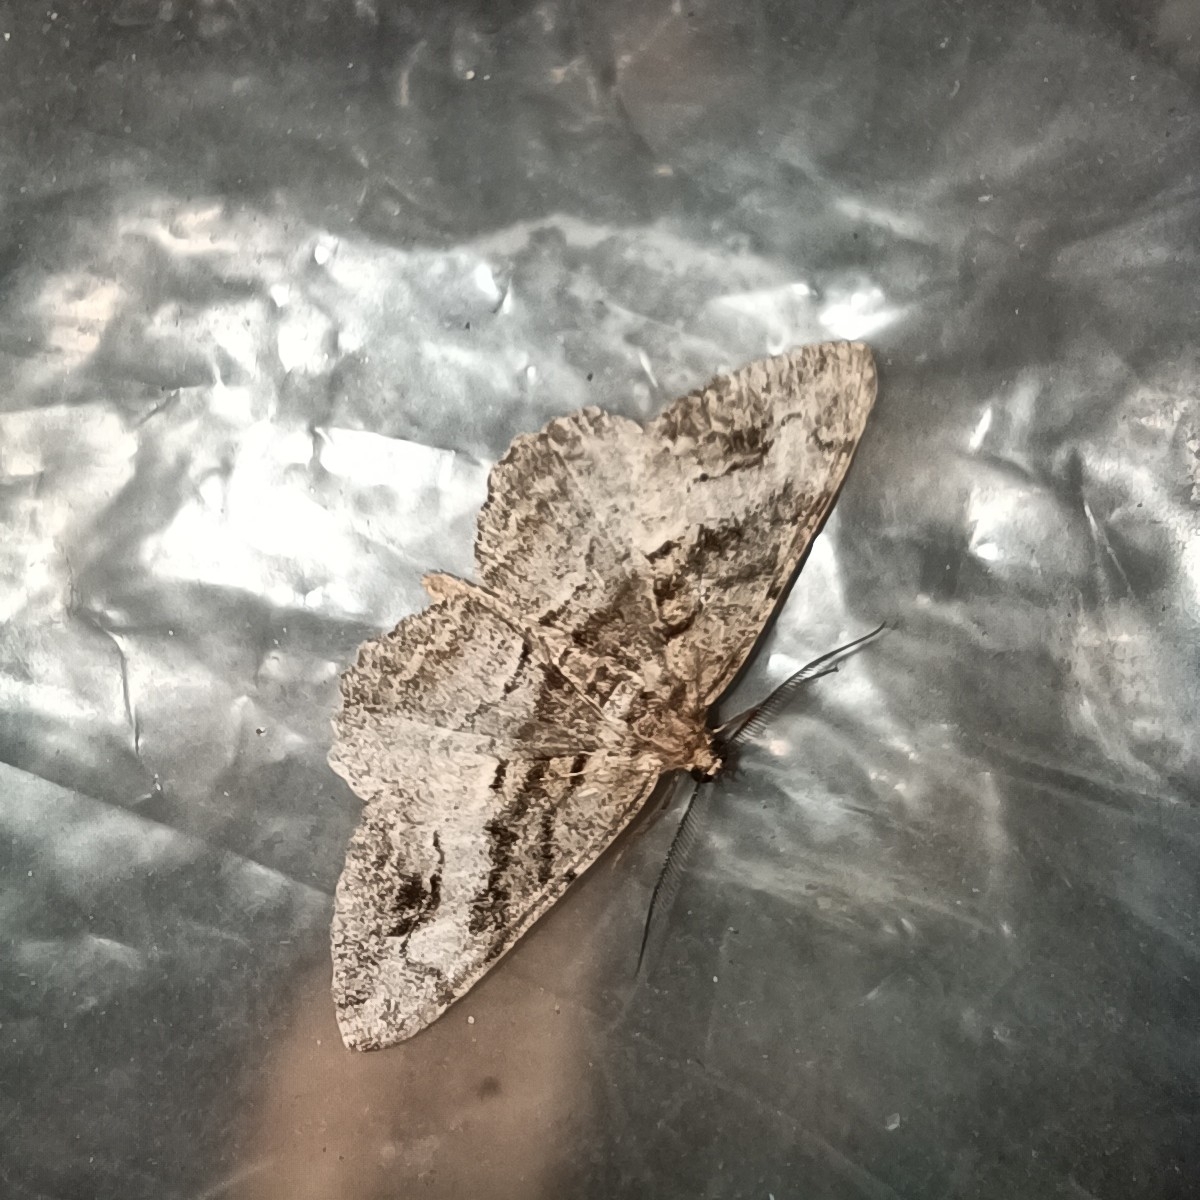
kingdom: Animalia
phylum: Arthropoda
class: Insecta
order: Lepidoptera
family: Geometridae
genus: Alcis
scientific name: Alcis deversata
